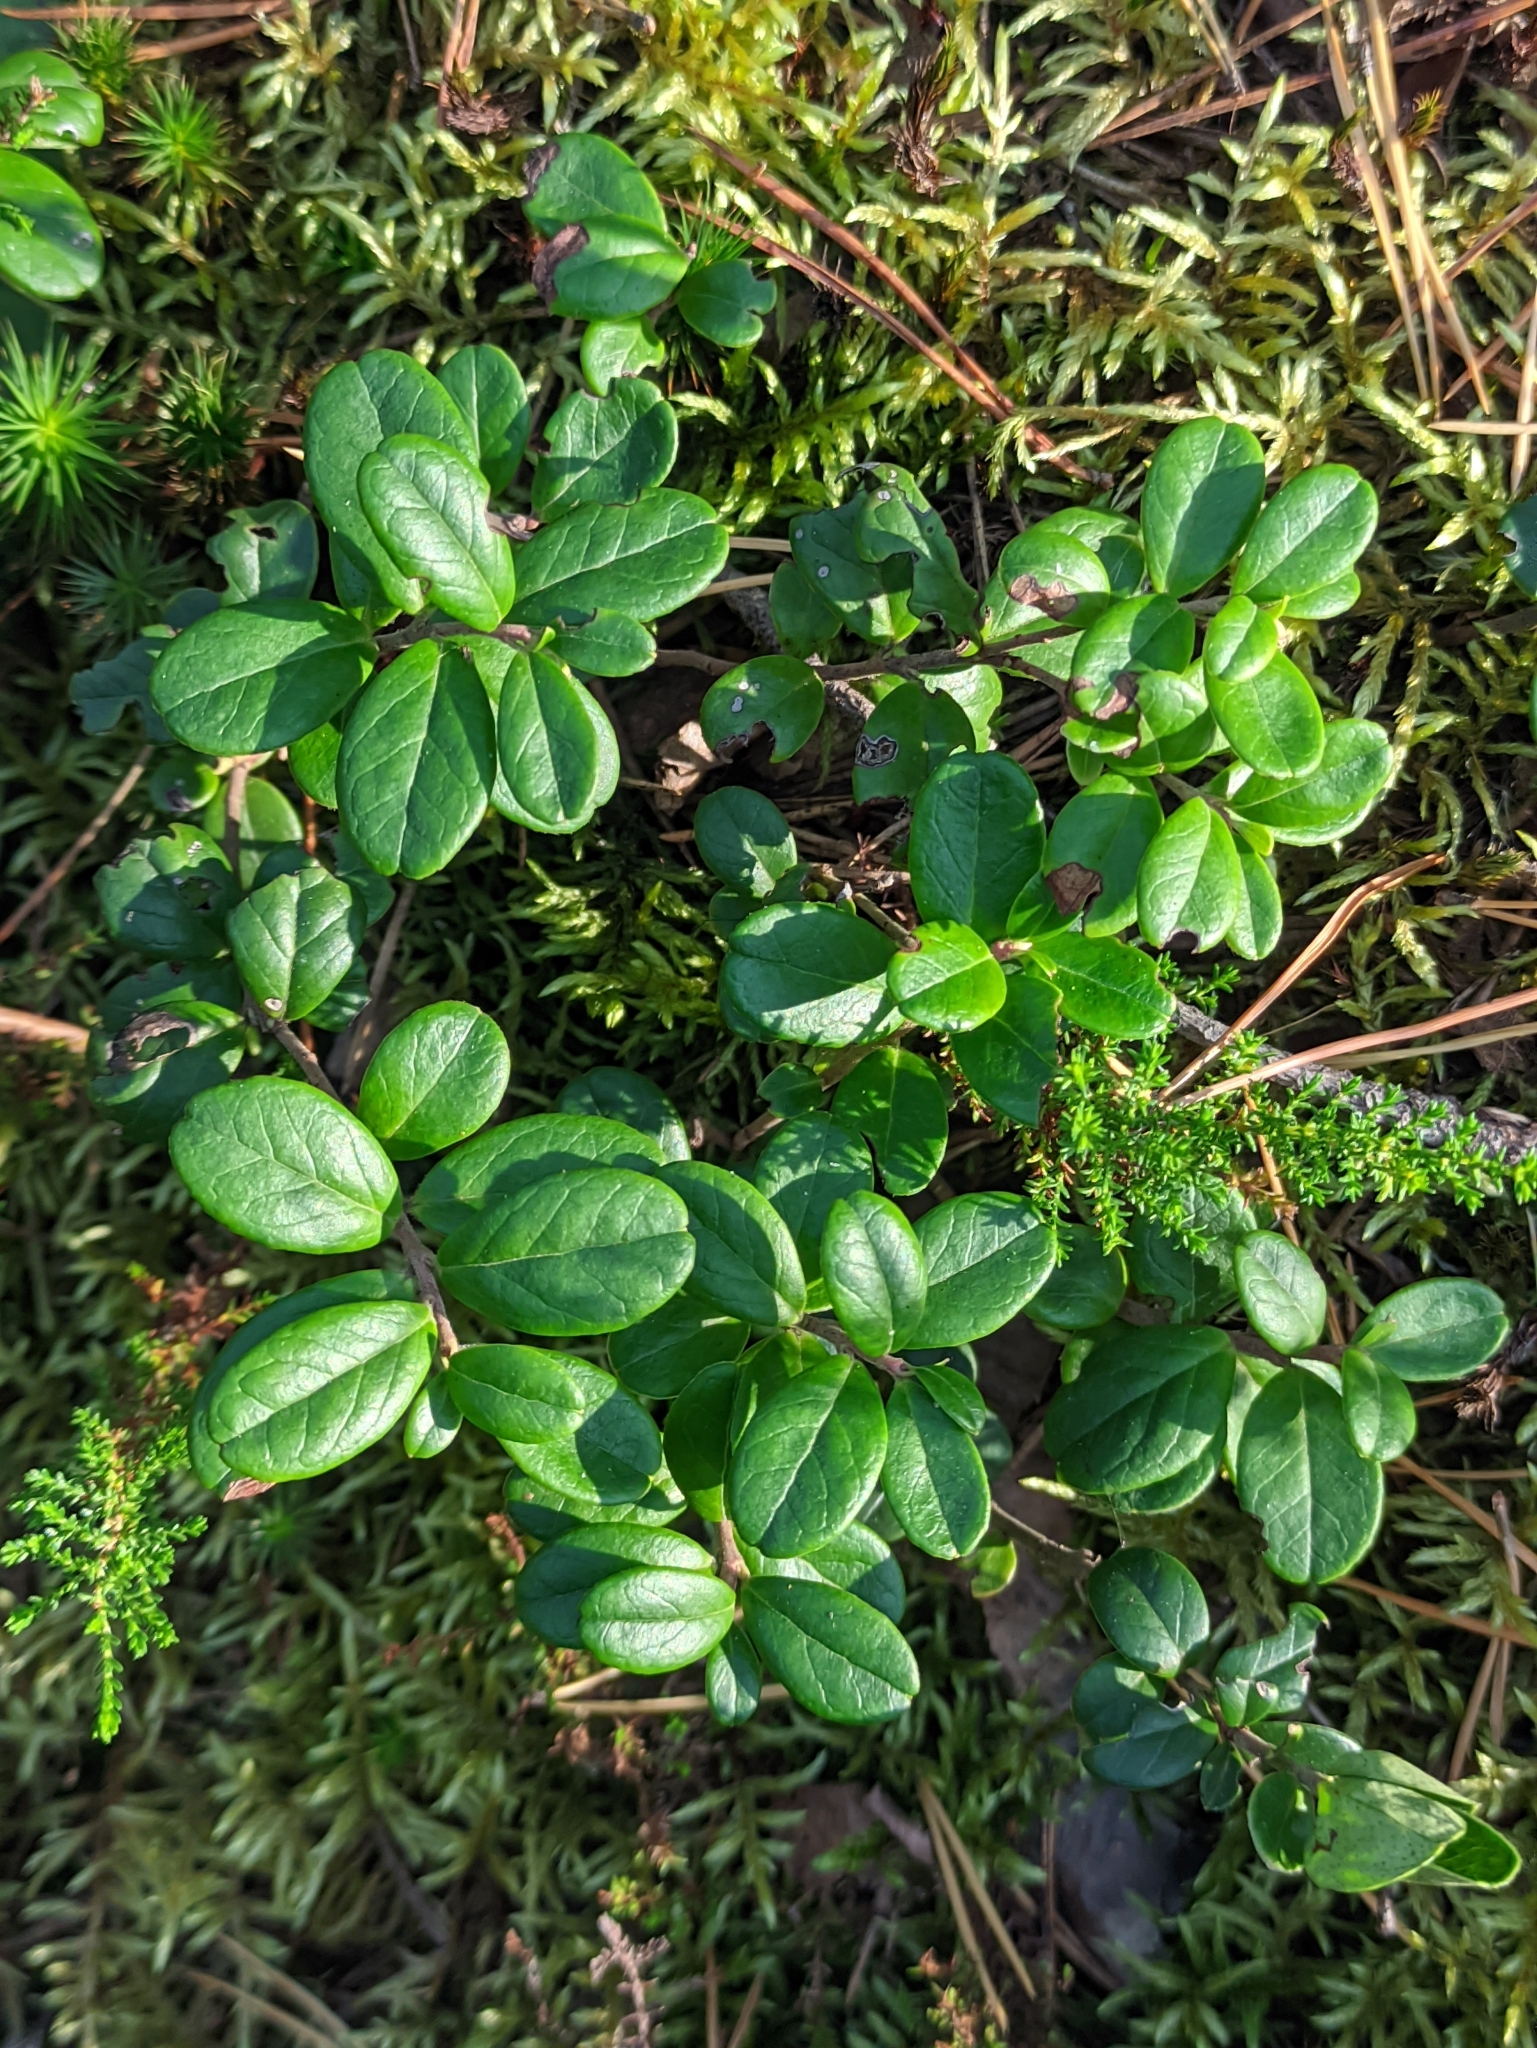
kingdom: Plantae
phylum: Tracheophyta
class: Magnoliopsida
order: Ericales
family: Ericaceae
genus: Vaccinium
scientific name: Vaccinium vitis-idaea
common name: Cowberry
